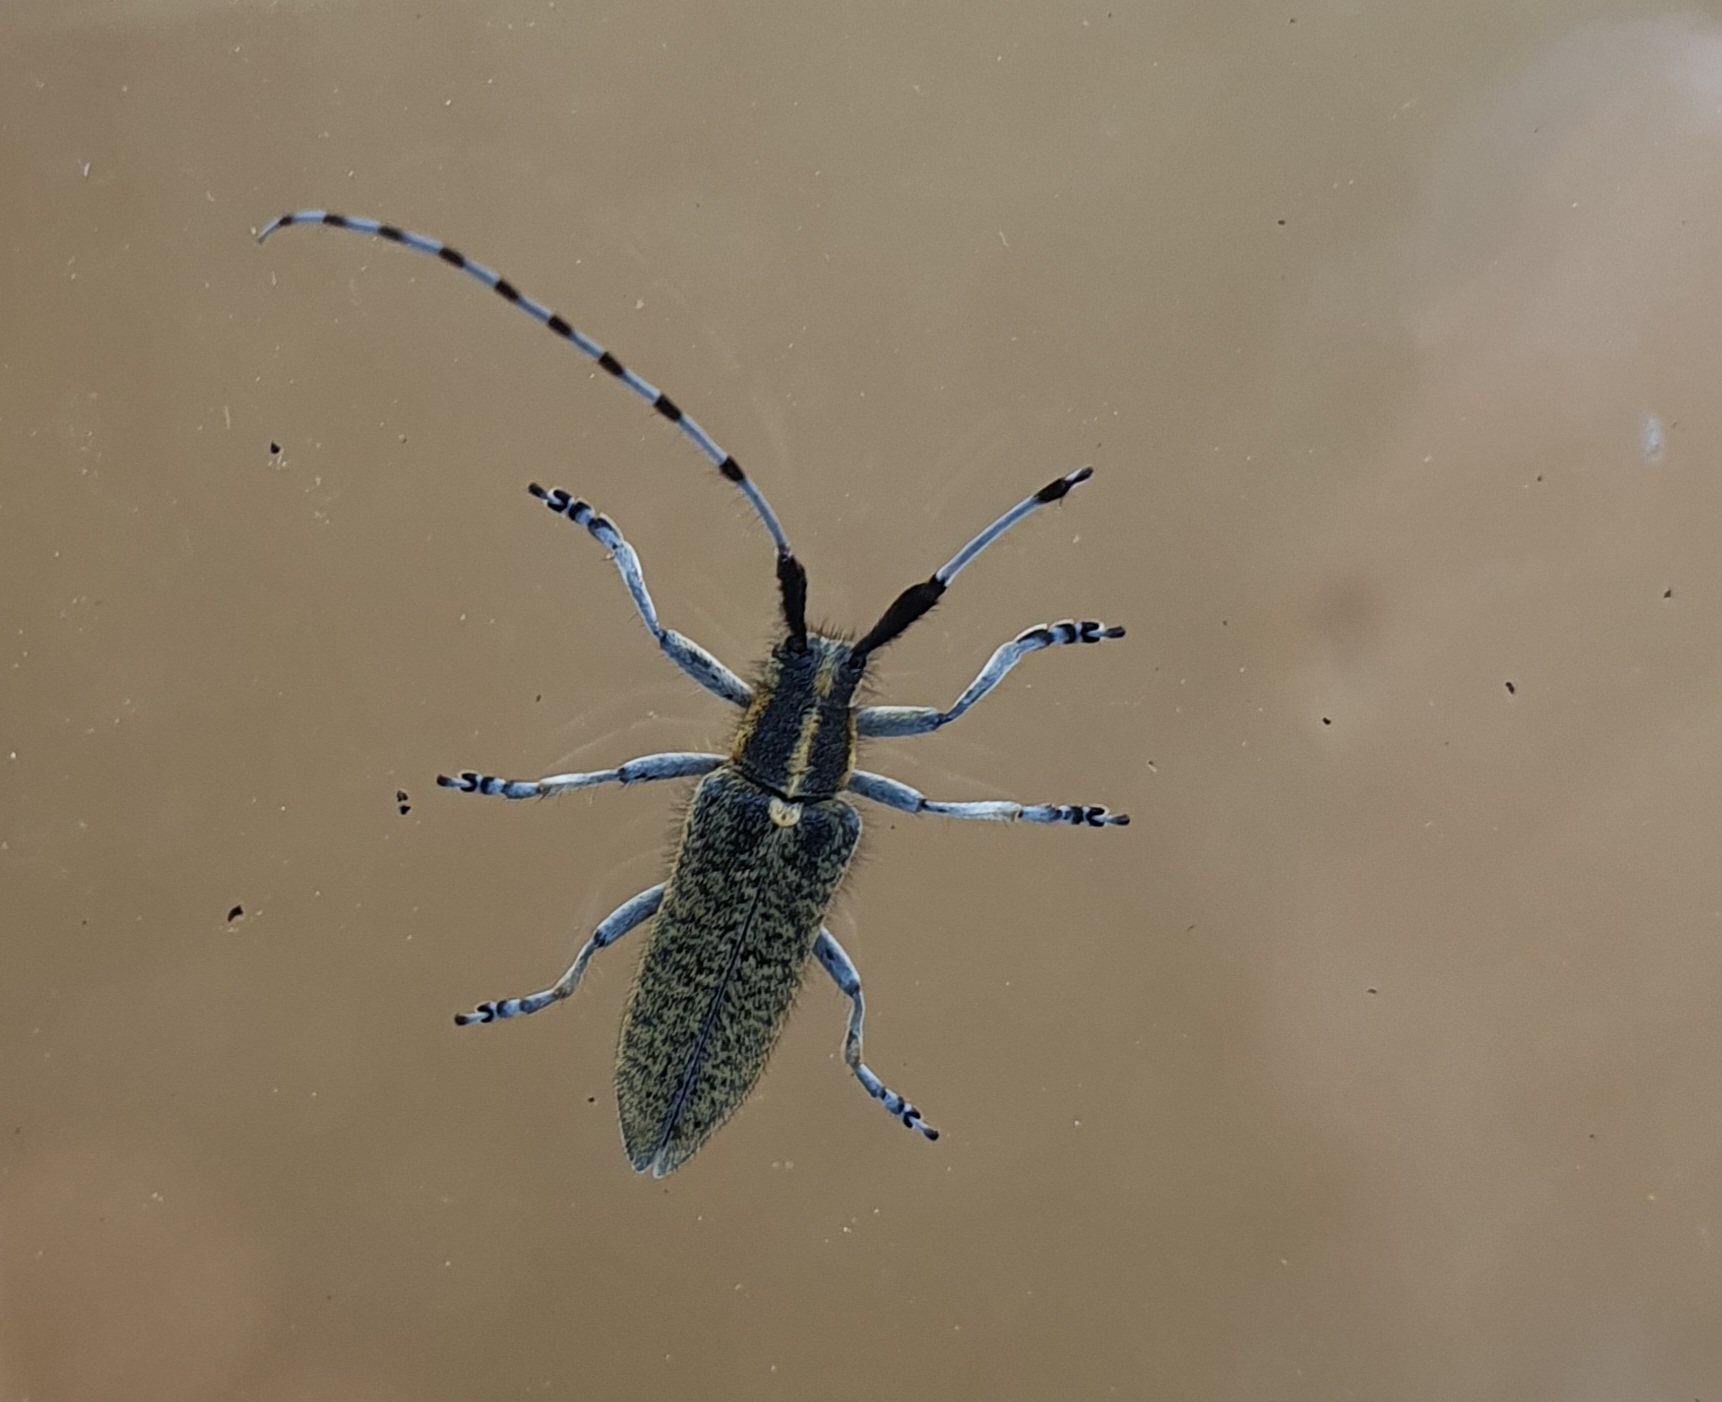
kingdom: Animalia
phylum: Arthropoda
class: Insecta
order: Coleoptera
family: Cerambycidae
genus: Agapanthia
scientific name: Agapanthia villosoviridescens
